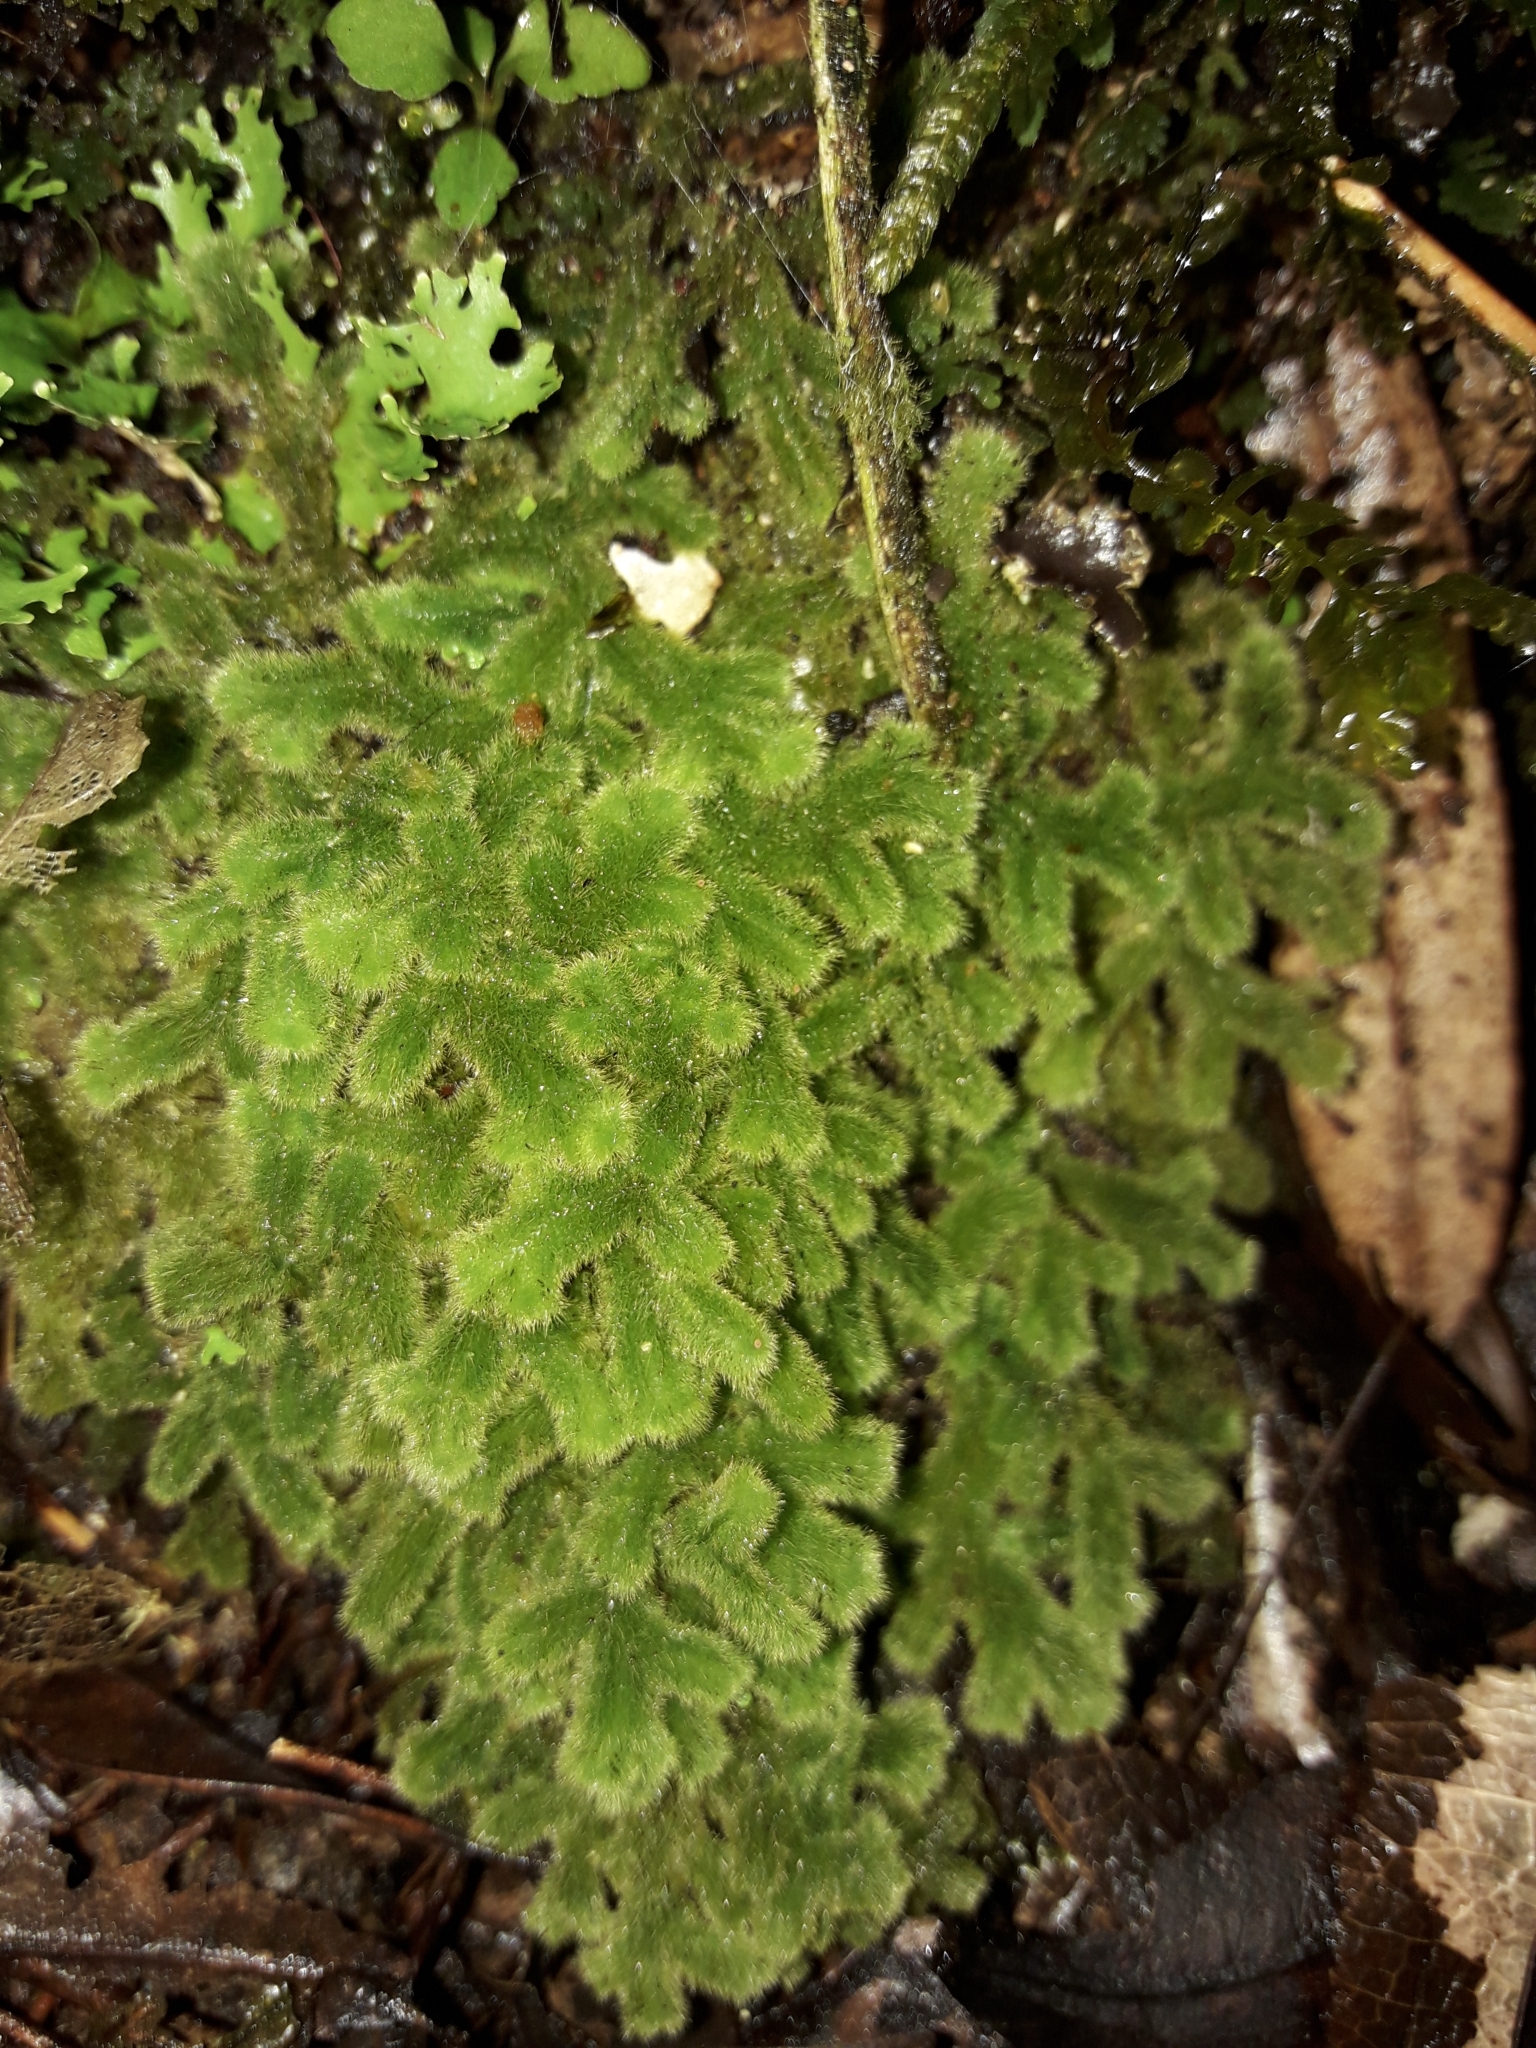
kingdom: Plantae
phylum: Marchantiophyta
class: Jungermanniopsida
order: Jungermanniales
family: Trichocoleaceae
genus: Leiomitra
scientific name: Leiomitra lanata
